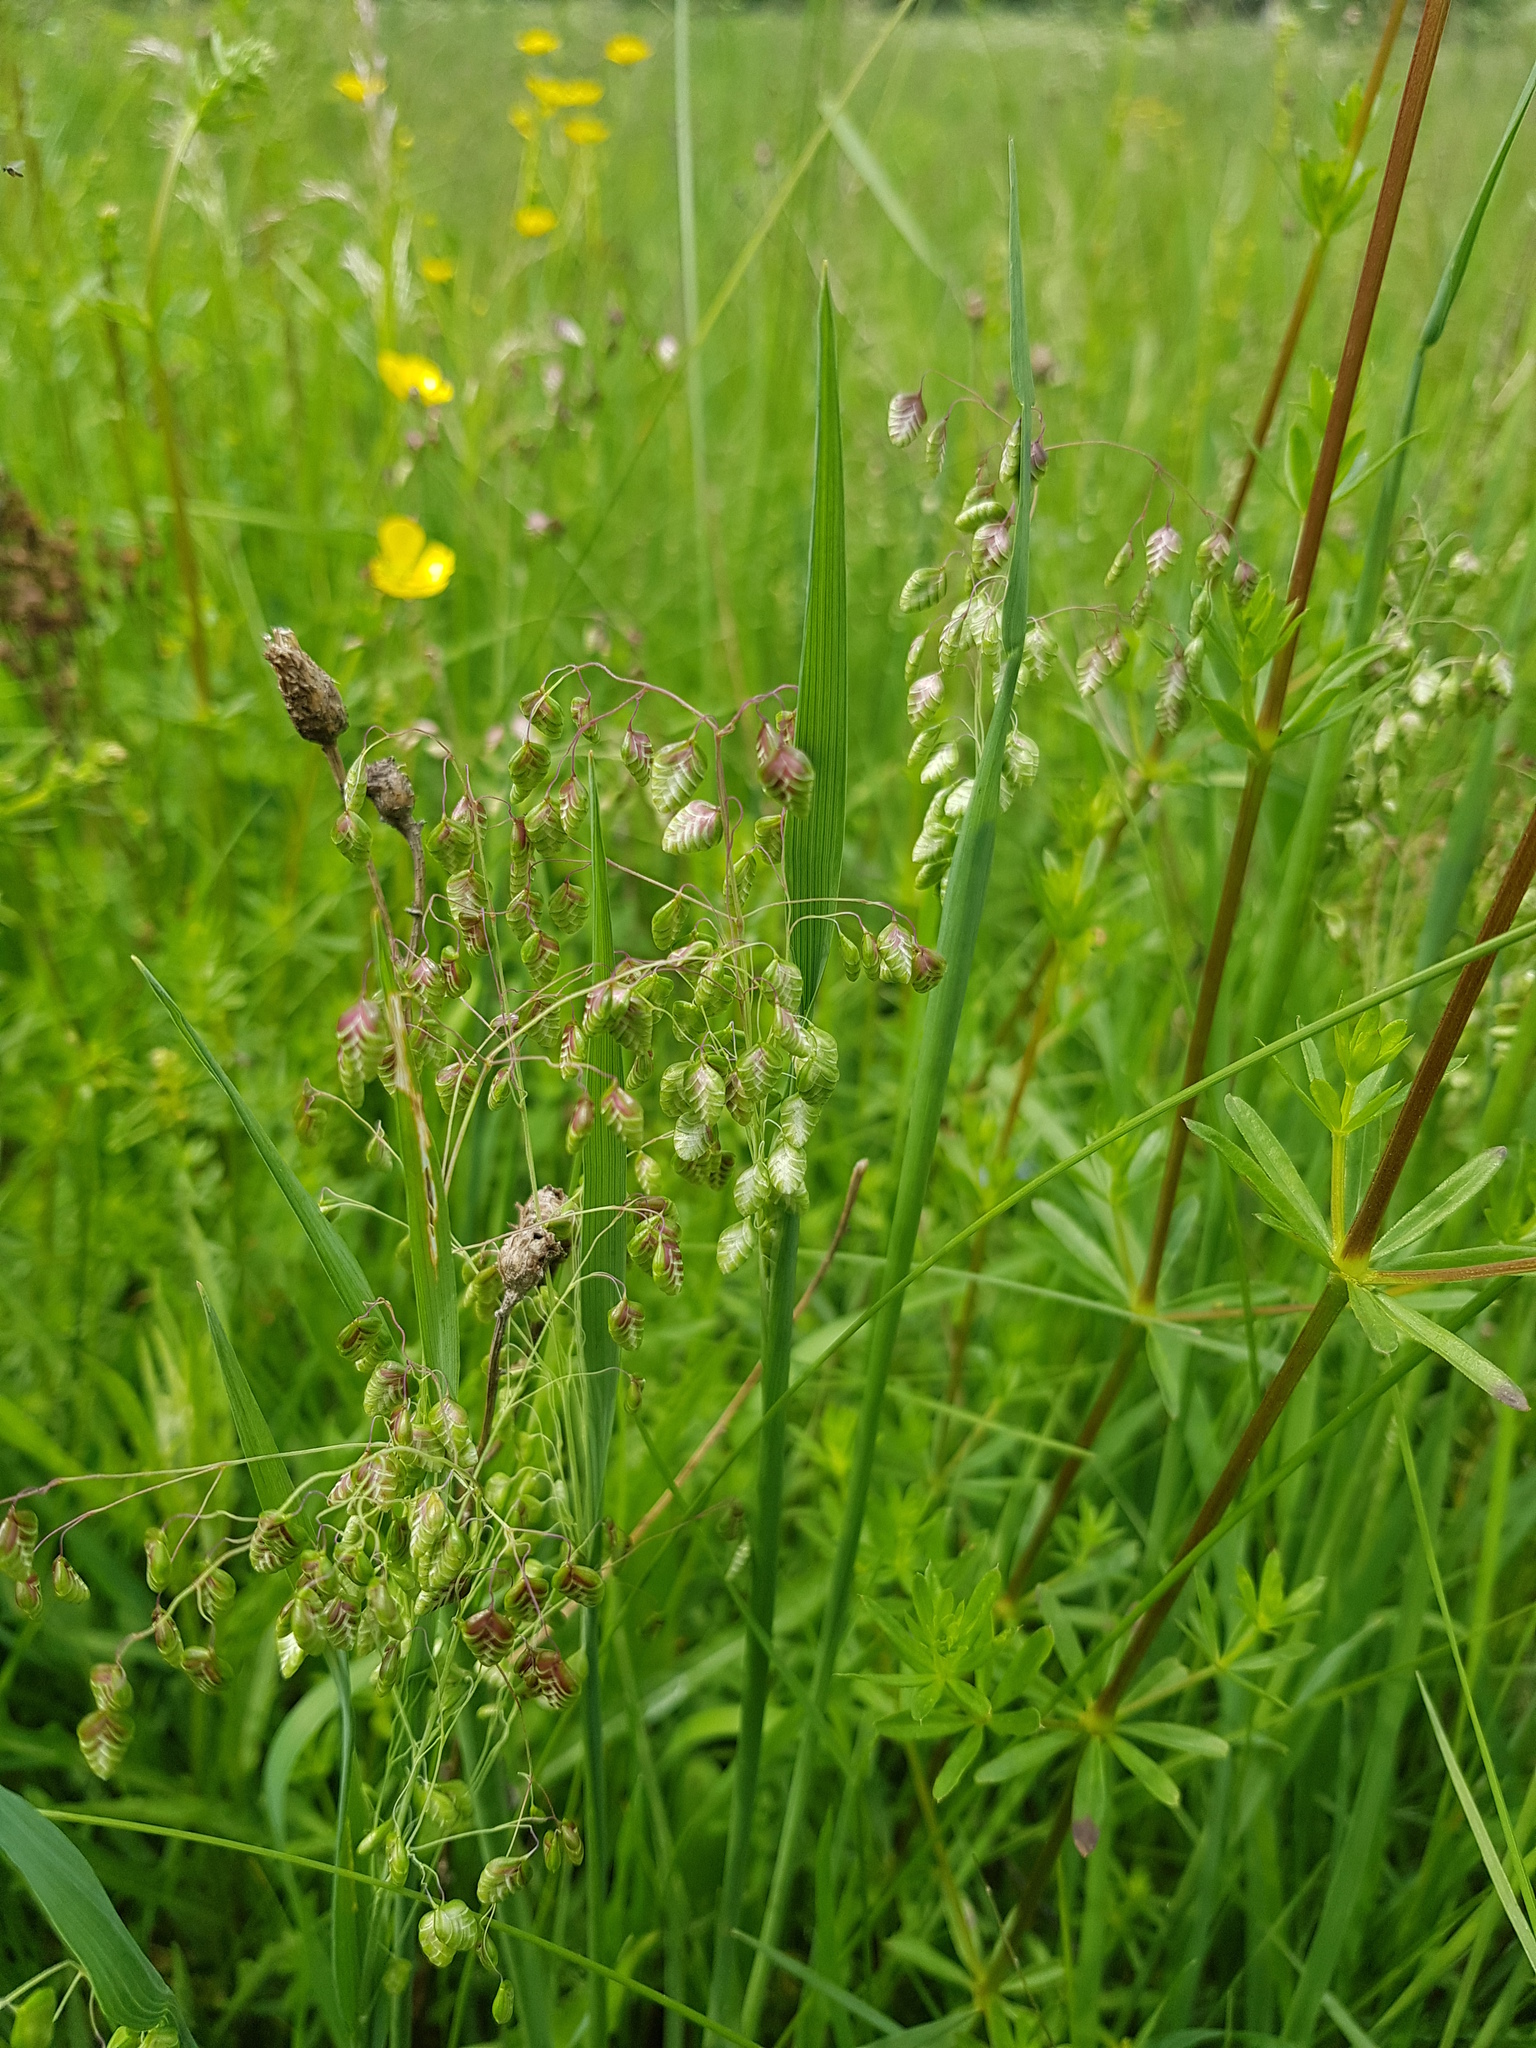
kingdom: Plantae
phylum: Tracheophyta
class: Liliopsida
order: Poales
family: Poaceae
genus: Briza
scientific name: Briza media
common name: Quaking grass
